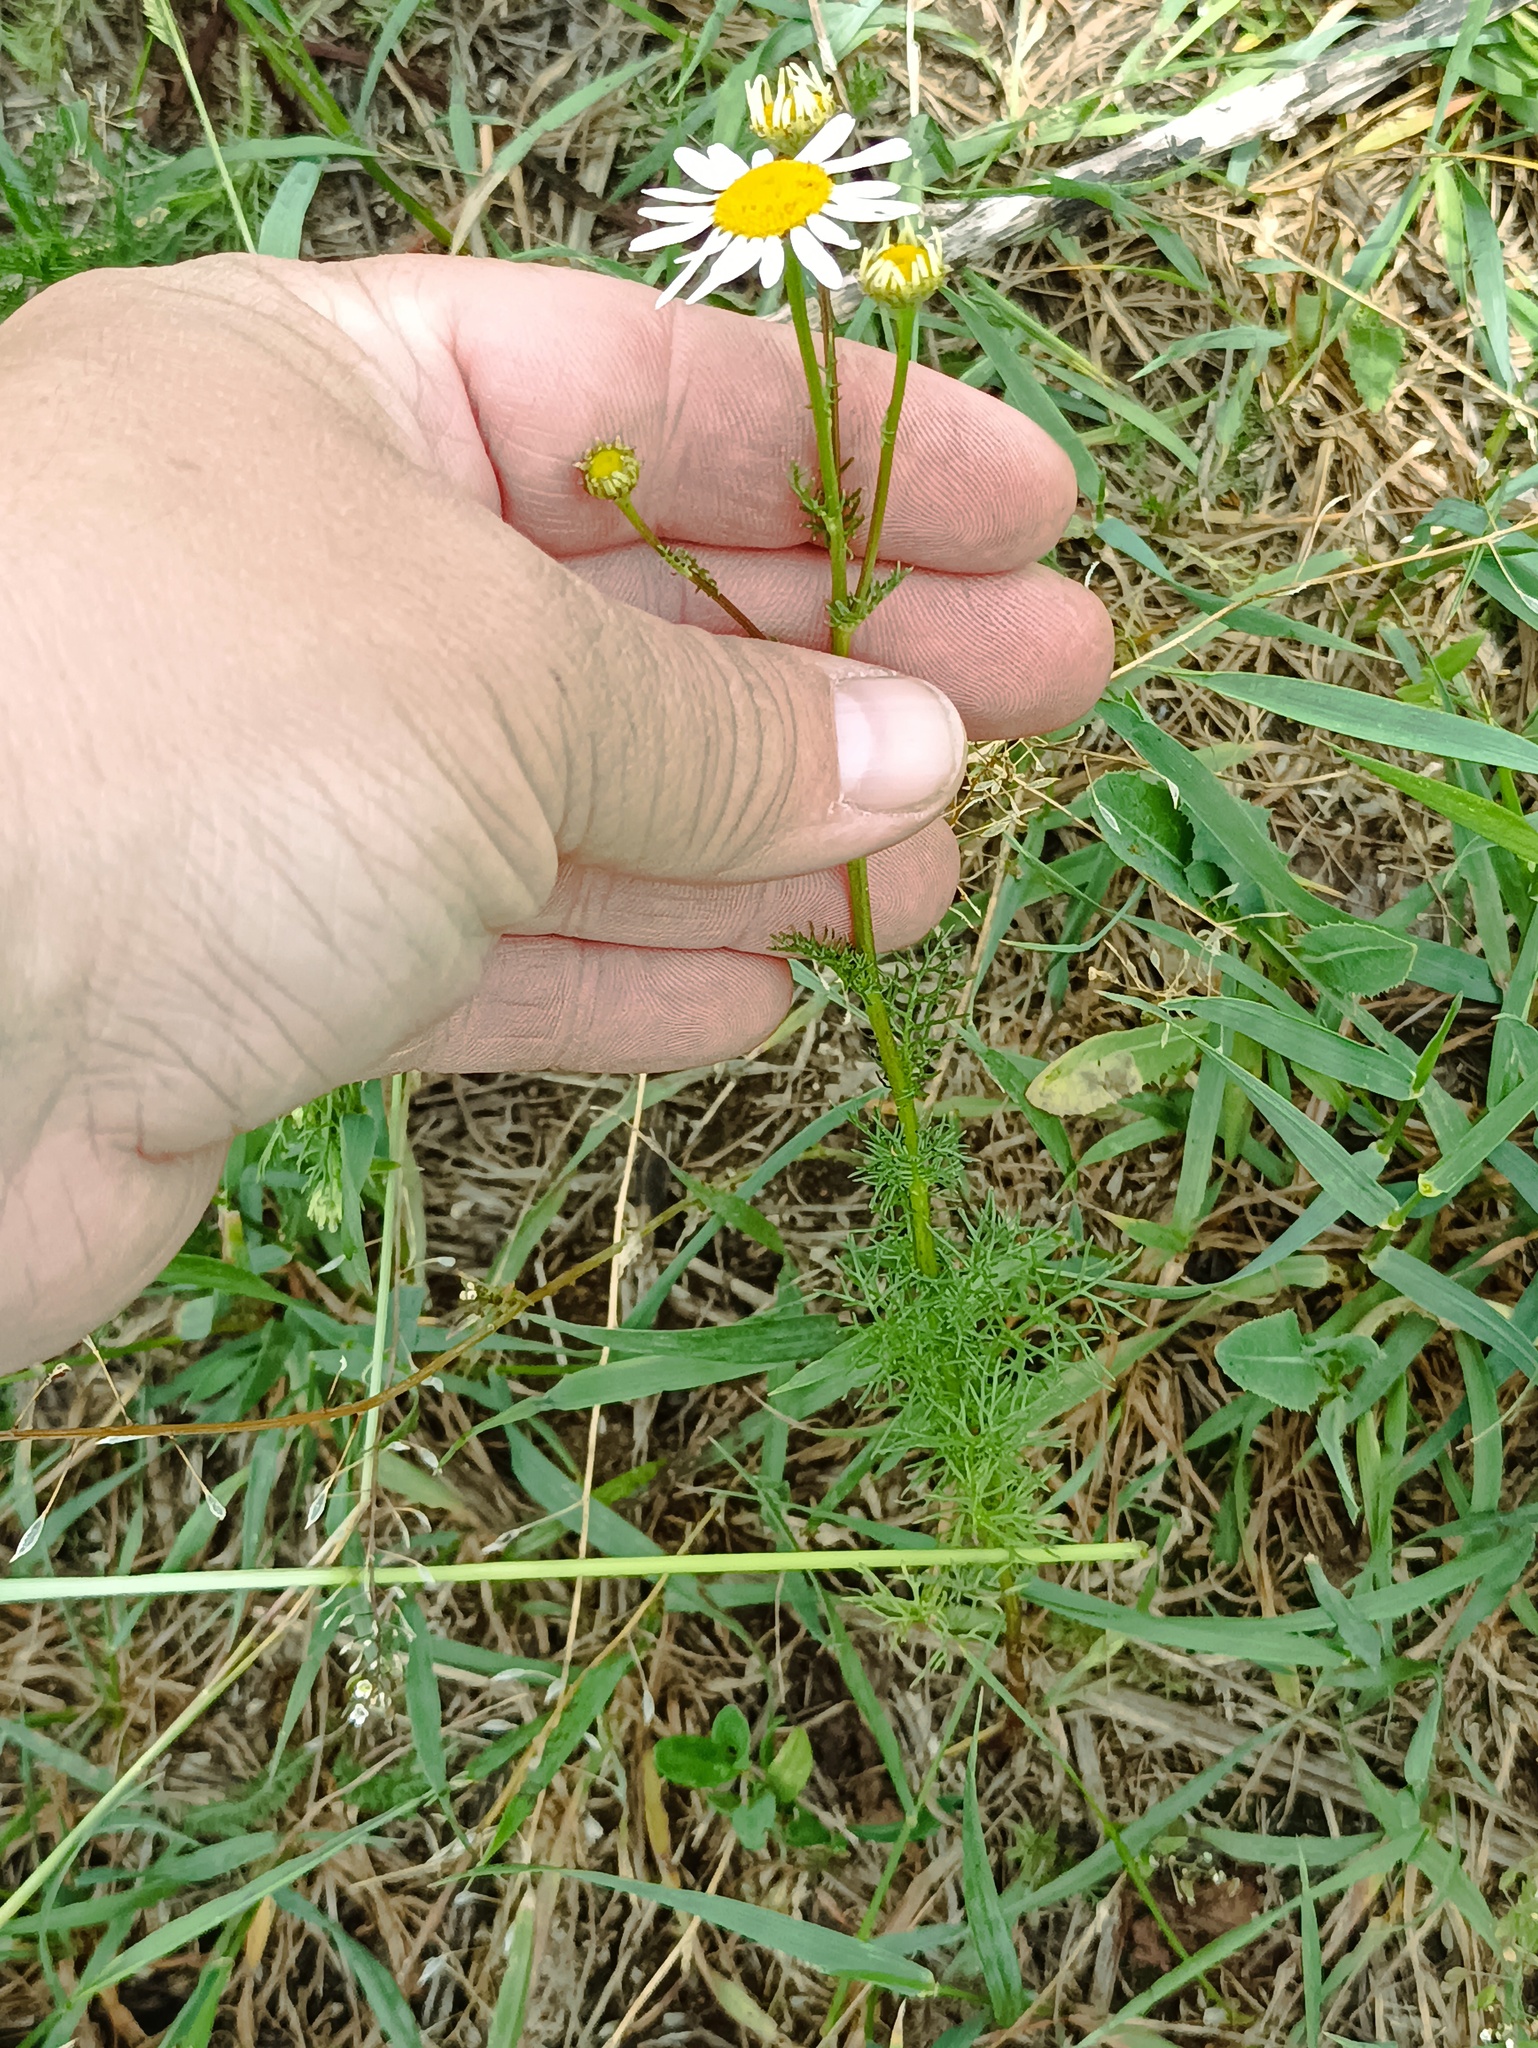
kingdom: Plantae
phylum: Tracheophyta
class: Magnoliopsida
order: Asterales
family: Asteraceae
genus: Tripleurospermum
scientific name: Tripleurospermum inodorum
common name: Scentless mayweed
